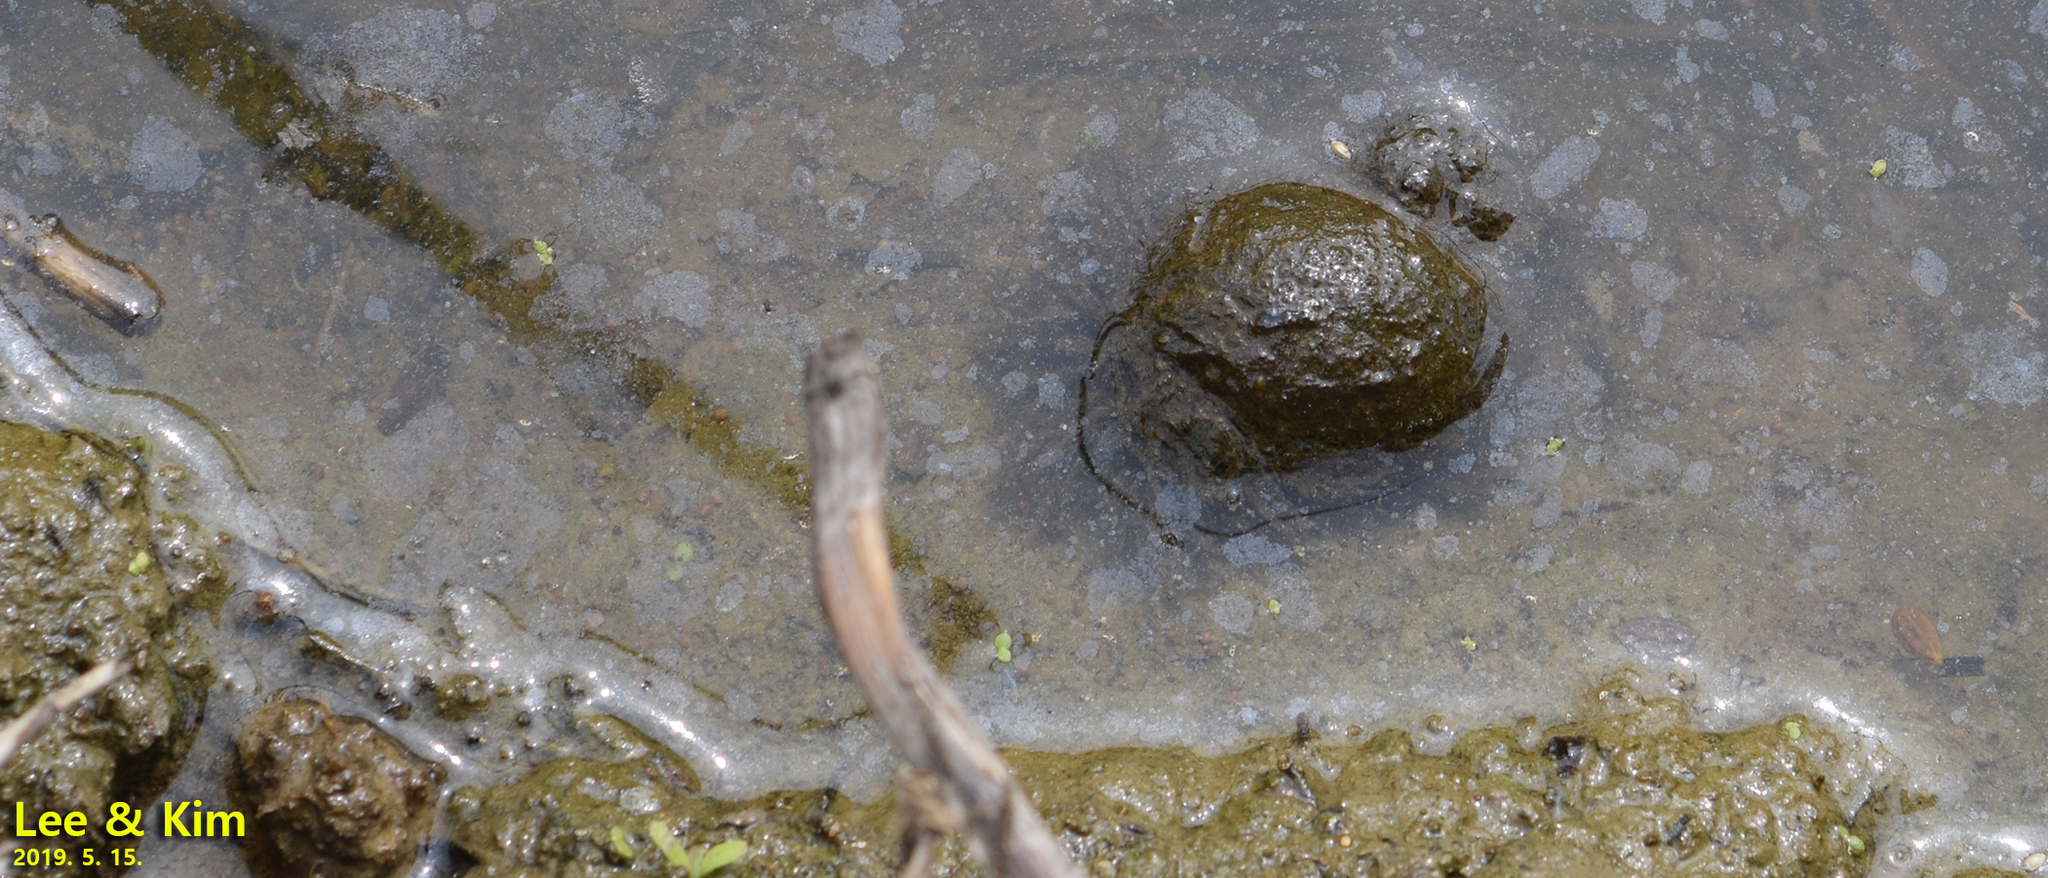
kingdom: Animalia
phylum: Mollusca
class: Gastropoda
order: Architaenioglossa
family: Viviparidae
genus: Cipangopaludina
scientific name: Cipangopaludina chinensis
